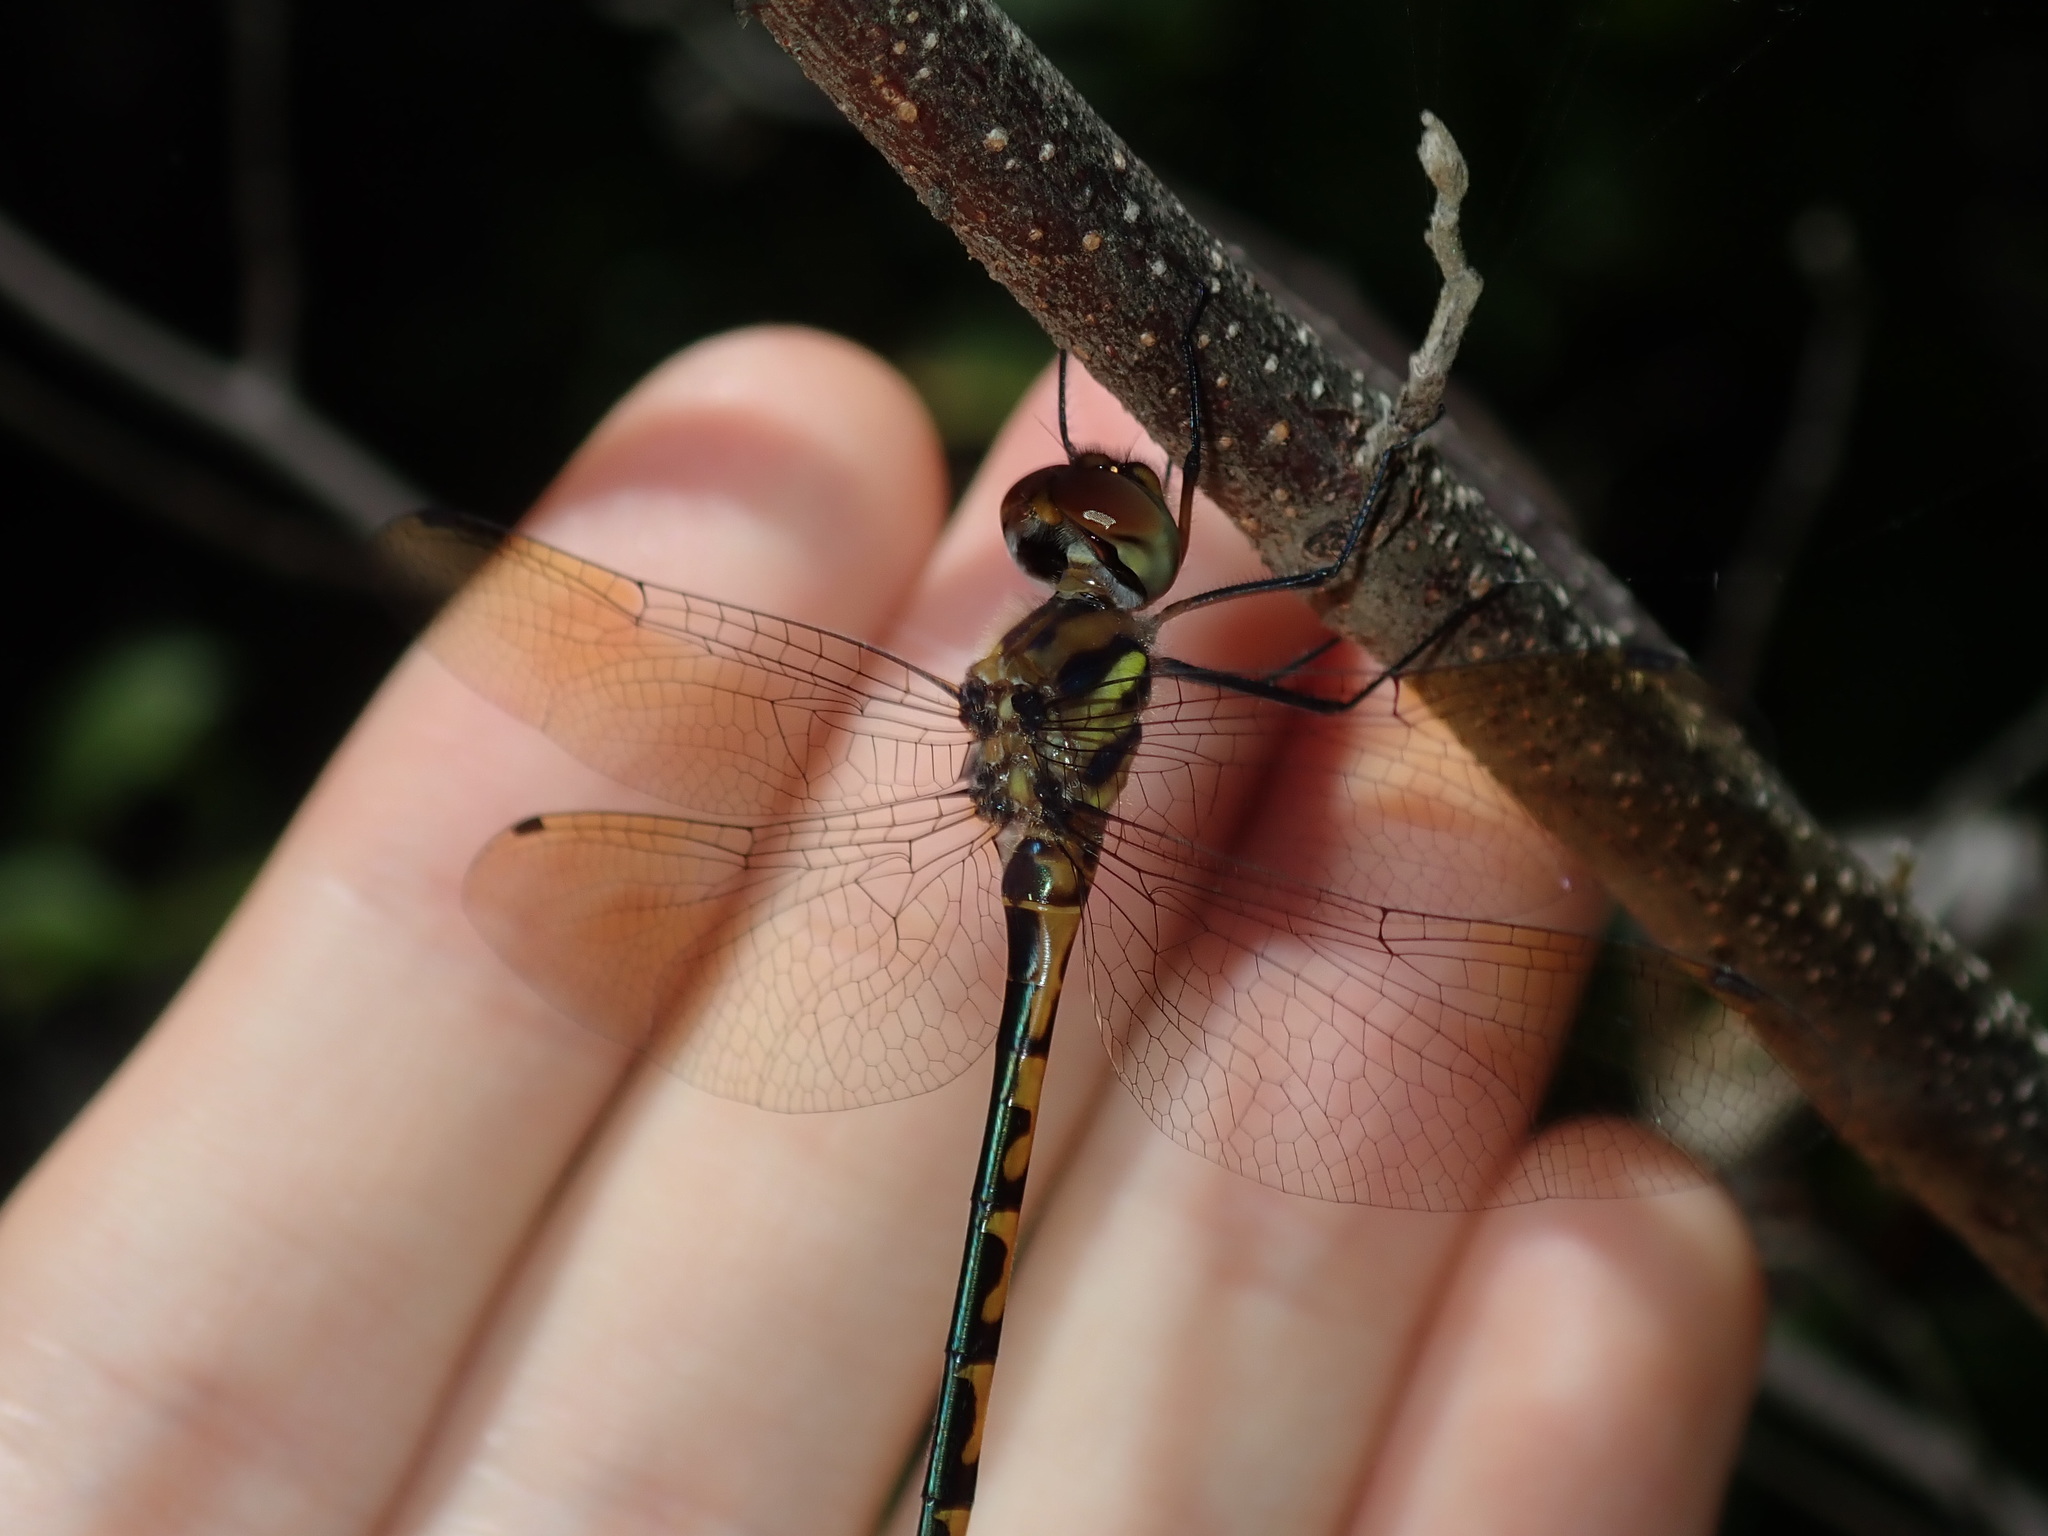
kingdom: Animalia
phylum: Arthropoda
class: Insecta
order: Odonata
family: Corduliidae
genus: Hemicordulia
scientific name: Hemicordulia australiae
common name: Sentry dragonfly
